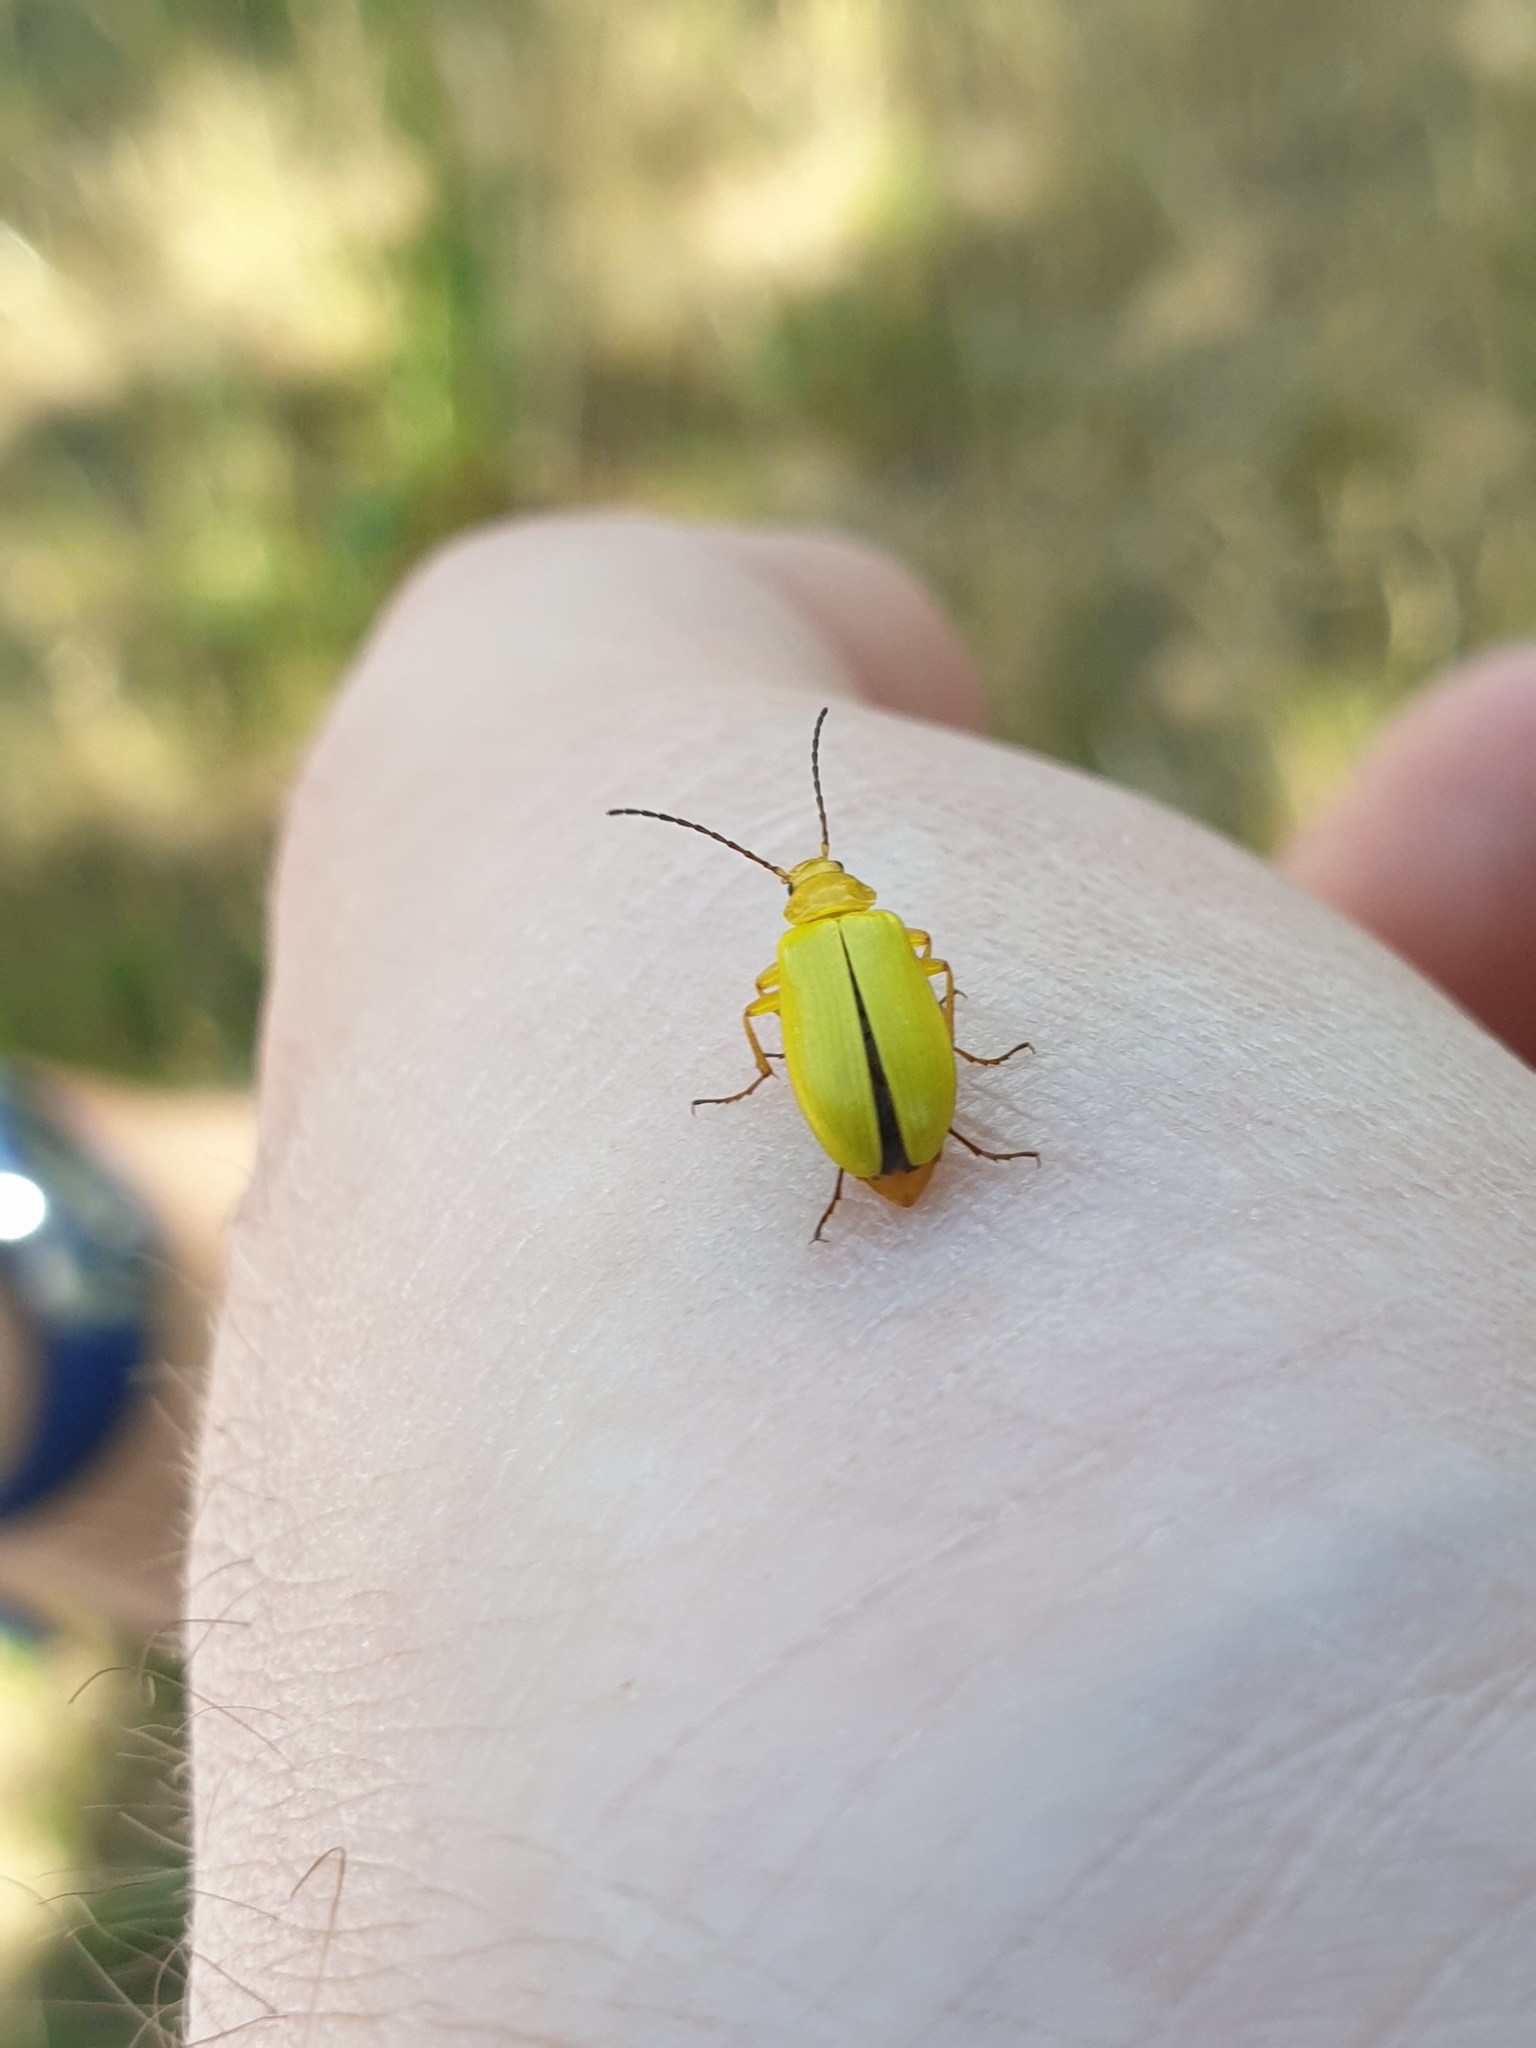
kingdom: Animalia
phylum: Arthropoda
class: Insecta
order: Coleoptera
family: Tenebrionidae
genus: Cteniopus
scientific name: Cteniopus sulphureus
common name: Sulphur beetle
